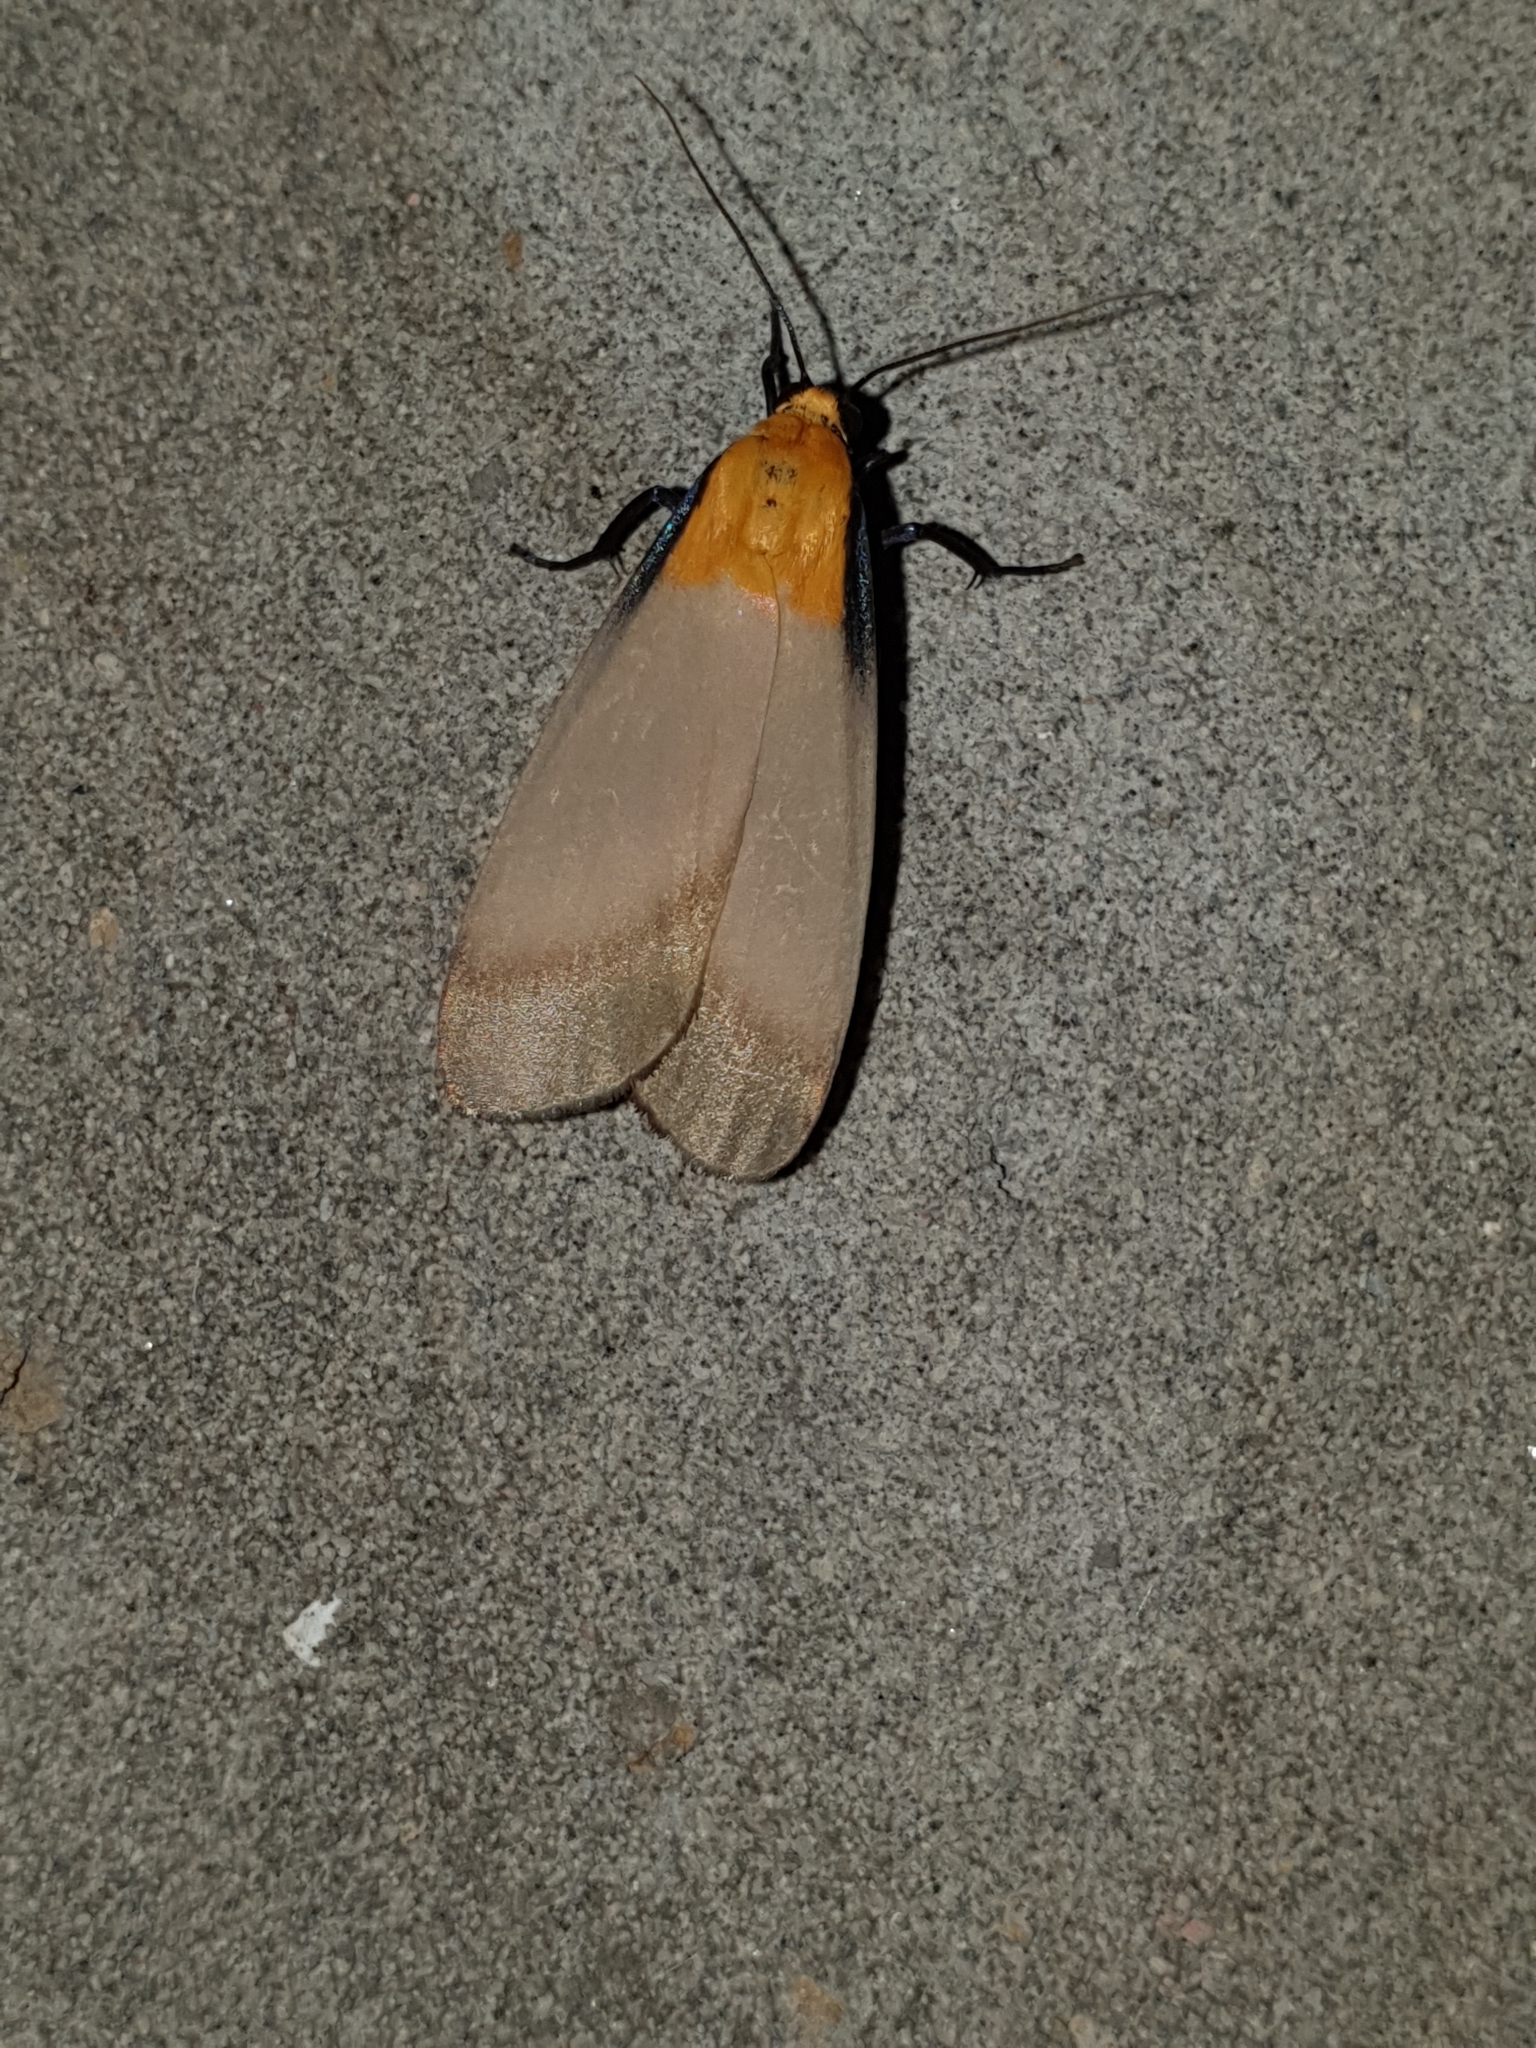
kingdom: Animalia
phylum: Arthropoda
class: Insecta
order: Lepidoptera
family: Erebidae
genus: Lithosia
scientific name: Lithosia quadra
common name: Four-spotted footman
